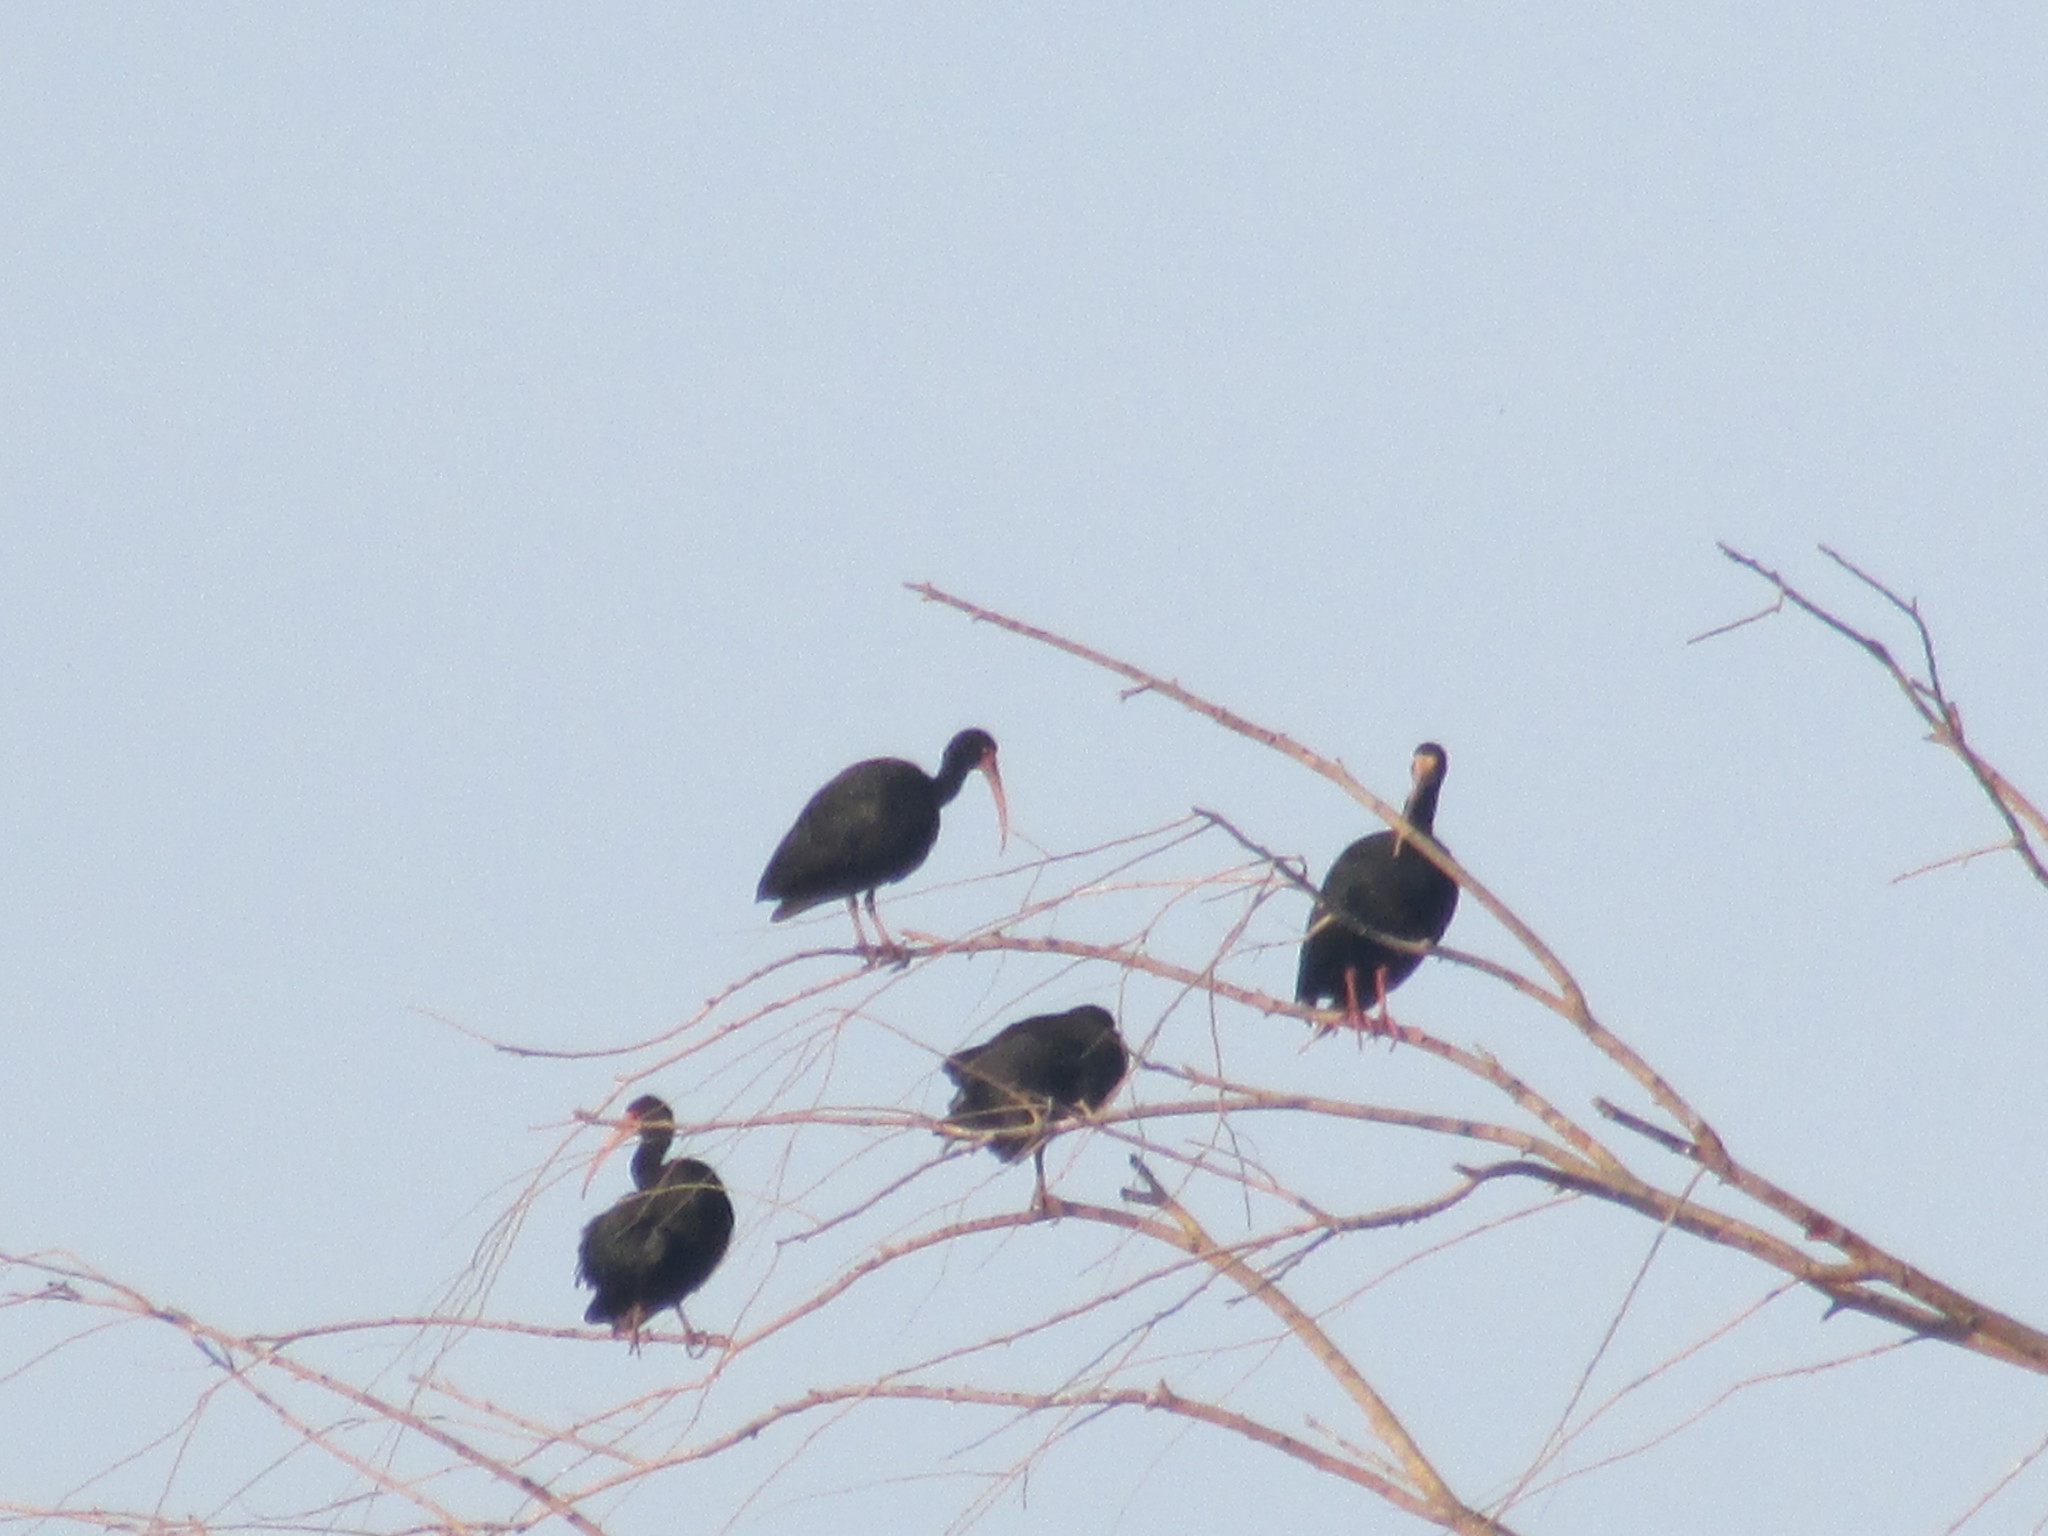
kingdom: Animalia
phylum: Chordata
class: Aves
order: Pelecaniformes
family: Threskiornithidae
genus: Phimosus
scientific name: Phimosus infuscatus
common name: Bare-faced ibis
